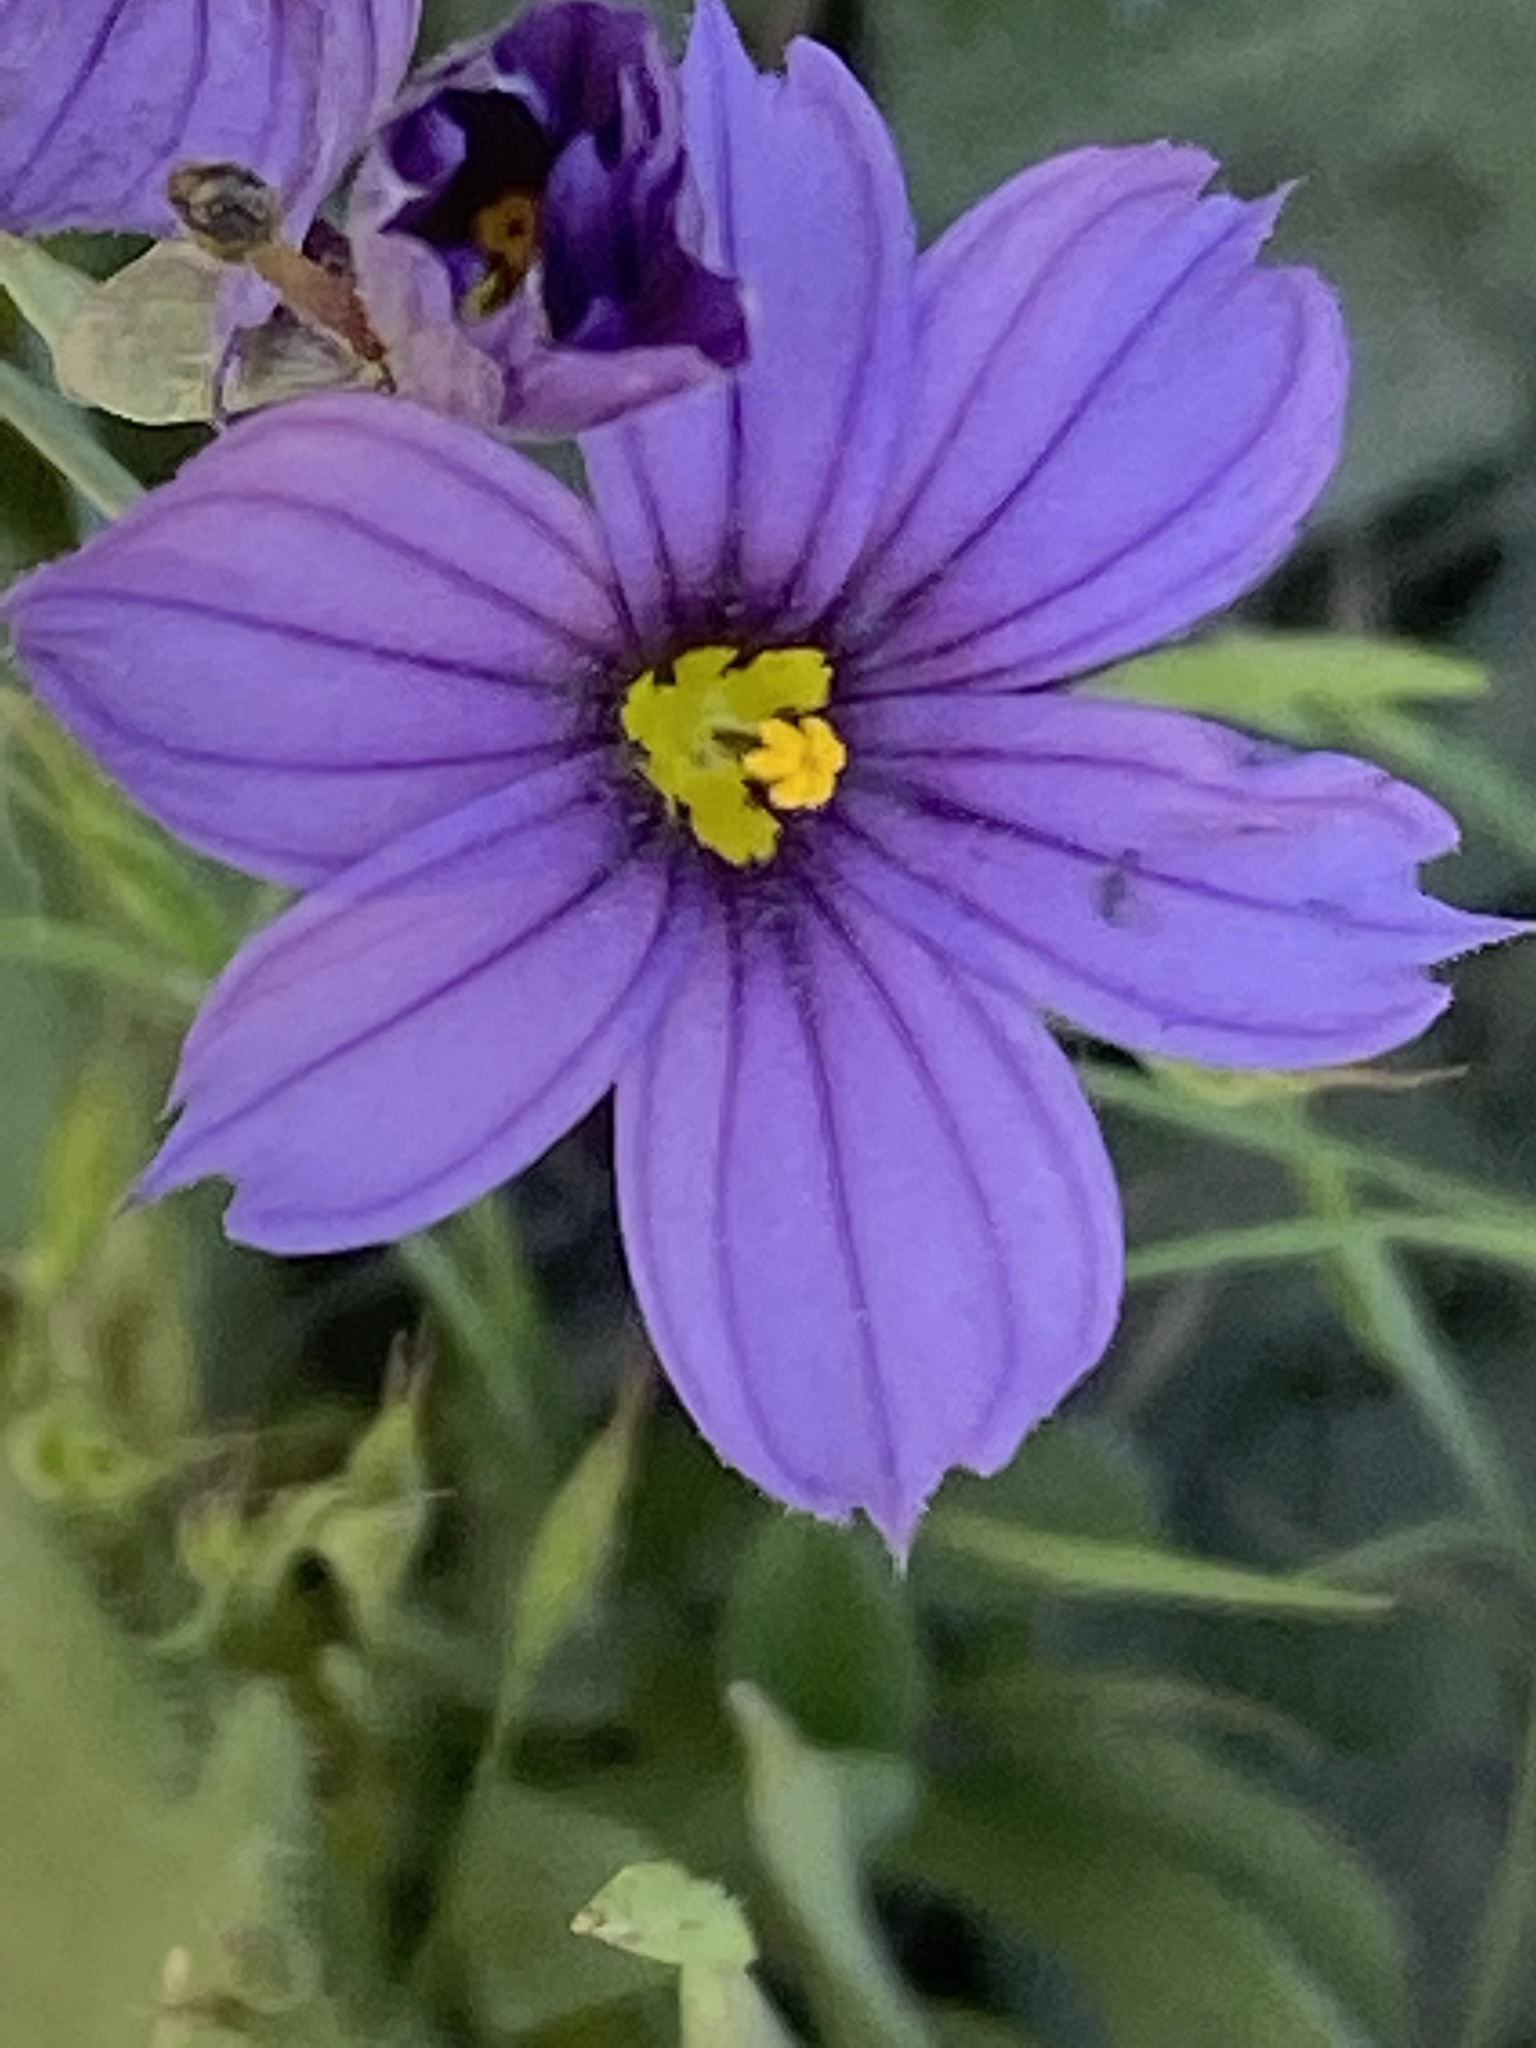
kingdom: Plantae
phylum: Tracheophyta
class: Liliopsida
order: Asparagales
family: Iridaceae
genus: Sisyrinchium
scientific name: Sisyrinchium bellum
